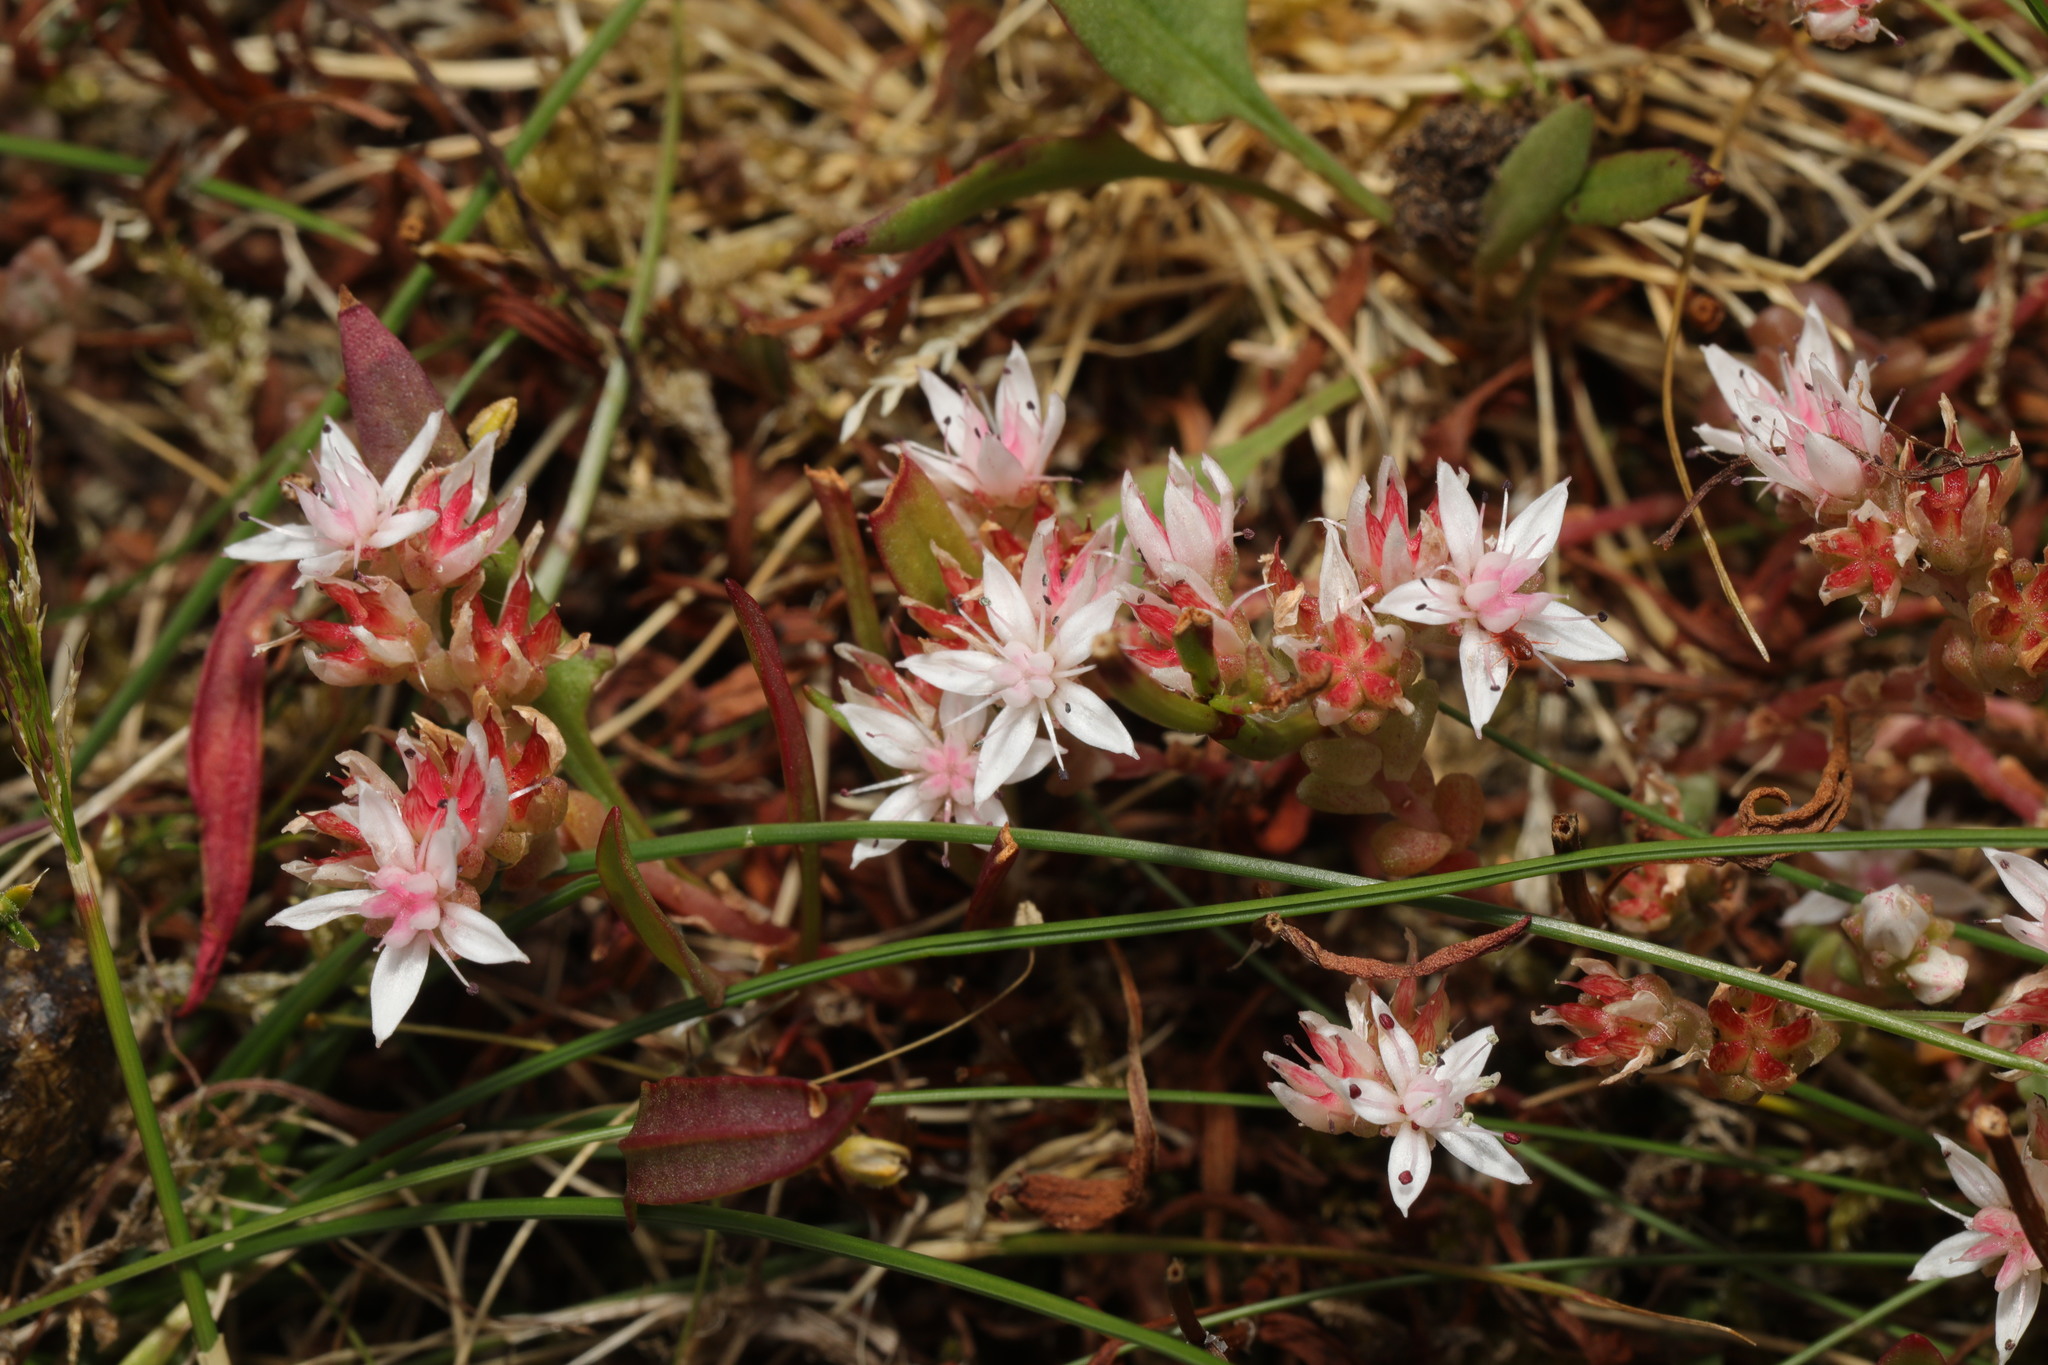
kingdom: Plantae
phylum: Tracheophyta
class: Magnoliopsida
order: Saxifragales
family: Crassulaceae
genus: Sedum
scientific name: Sedum anglicum
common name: English stonecrop
